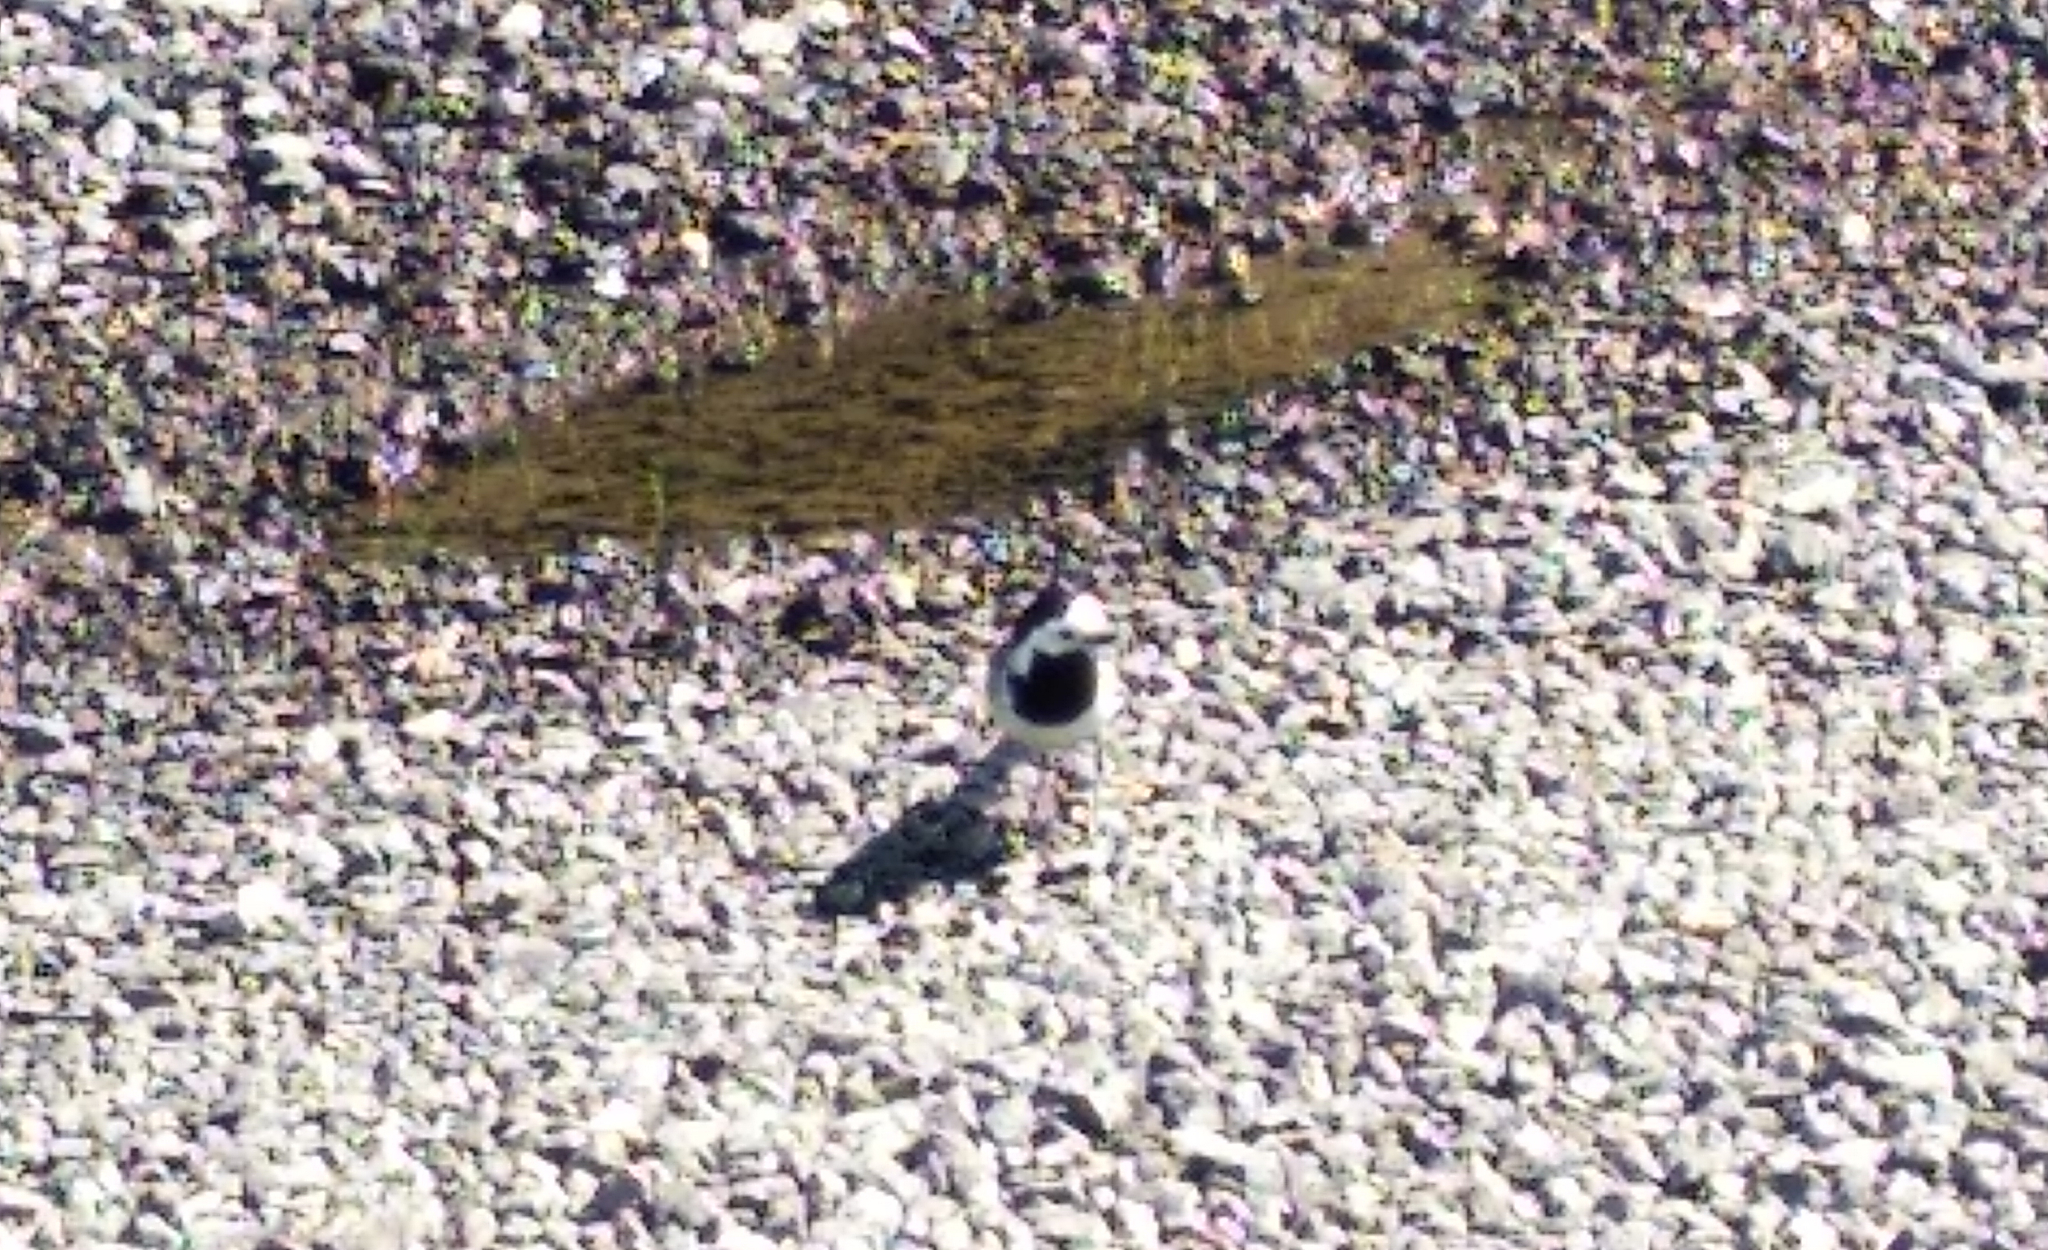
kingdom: Animalia
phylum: Chordata
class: Aves
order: Passeriformes
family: Motacillidae
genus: Motacilla
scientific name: Motacilla alba
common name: White wagtail
